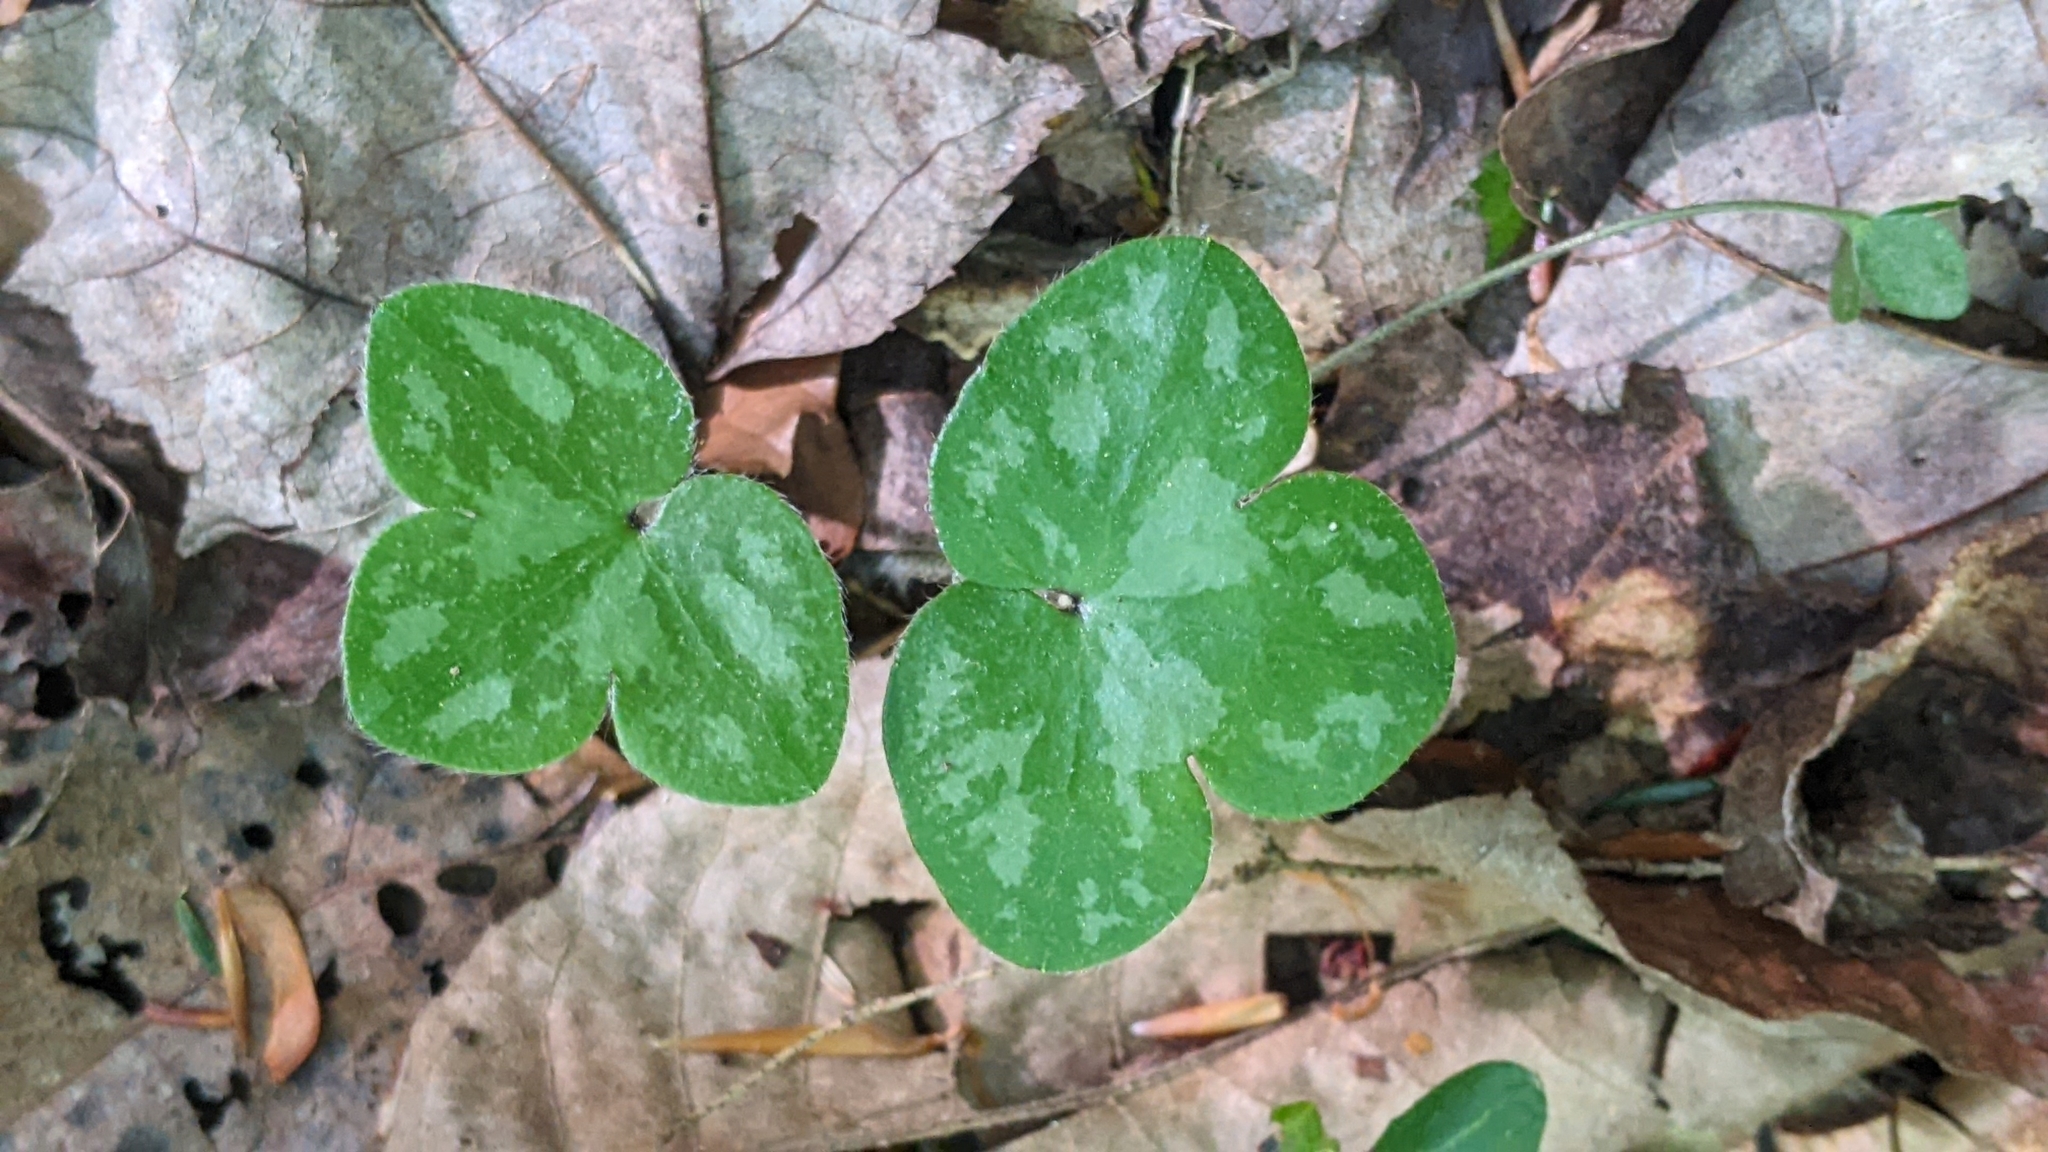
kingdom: Plantae
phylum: Tracheophyta
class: Magnoliopsida
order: Ranunculales
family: Ranunculaceae
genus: Hepatica
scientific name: Hepatica americana
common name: American hepatica
